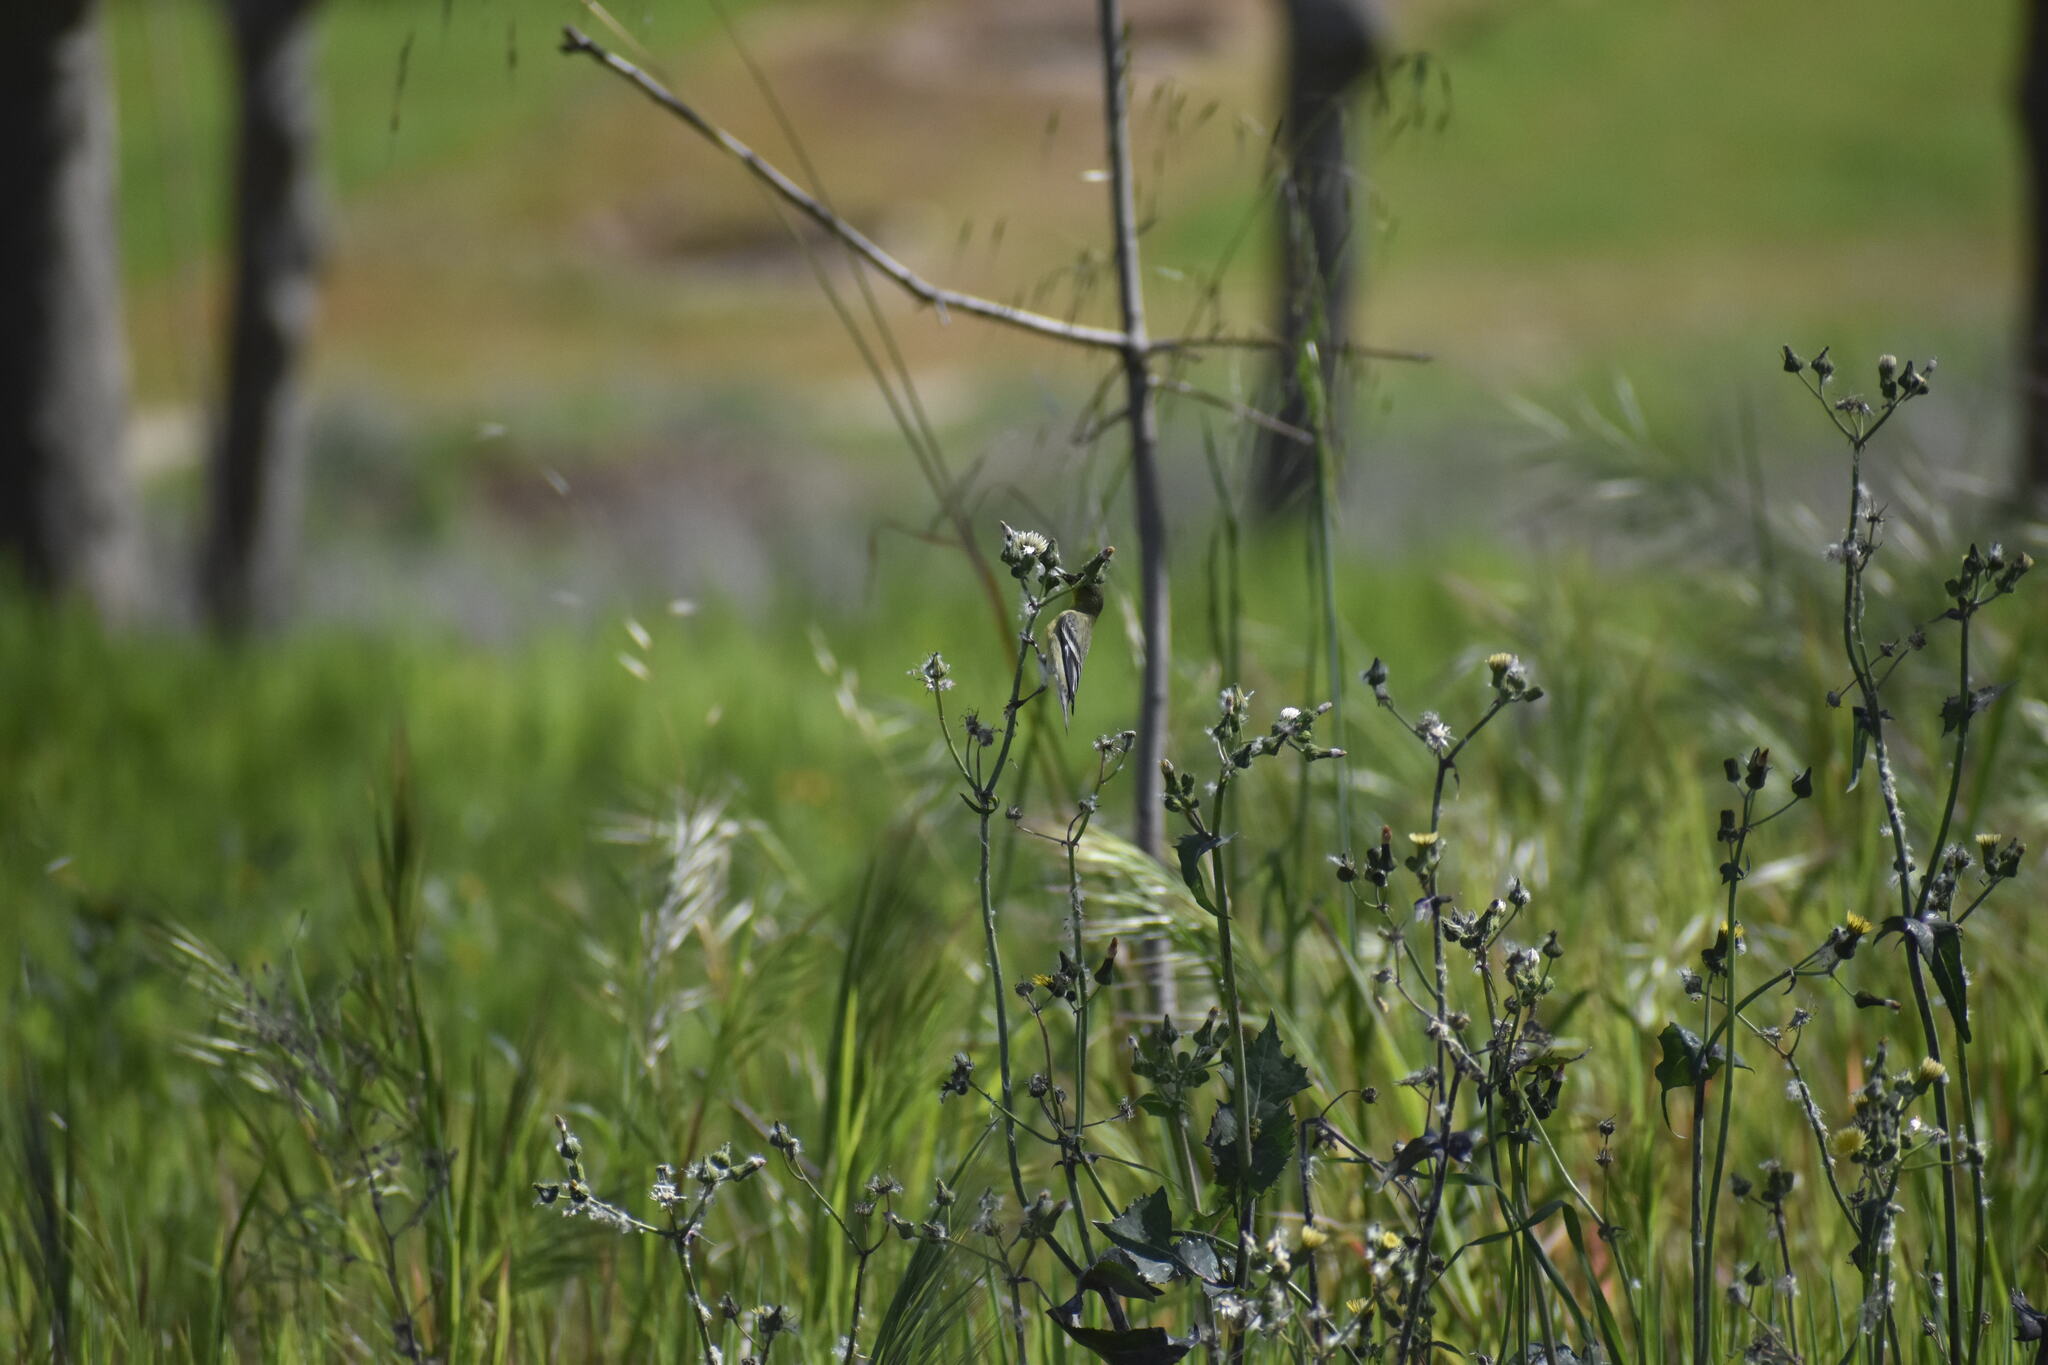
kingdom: Animalia
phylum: Chordata
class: Aves
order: Passeriformes
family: Fringillidae
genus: Spinus
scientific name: Spinus psaltria
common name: Lesser goldfinch
